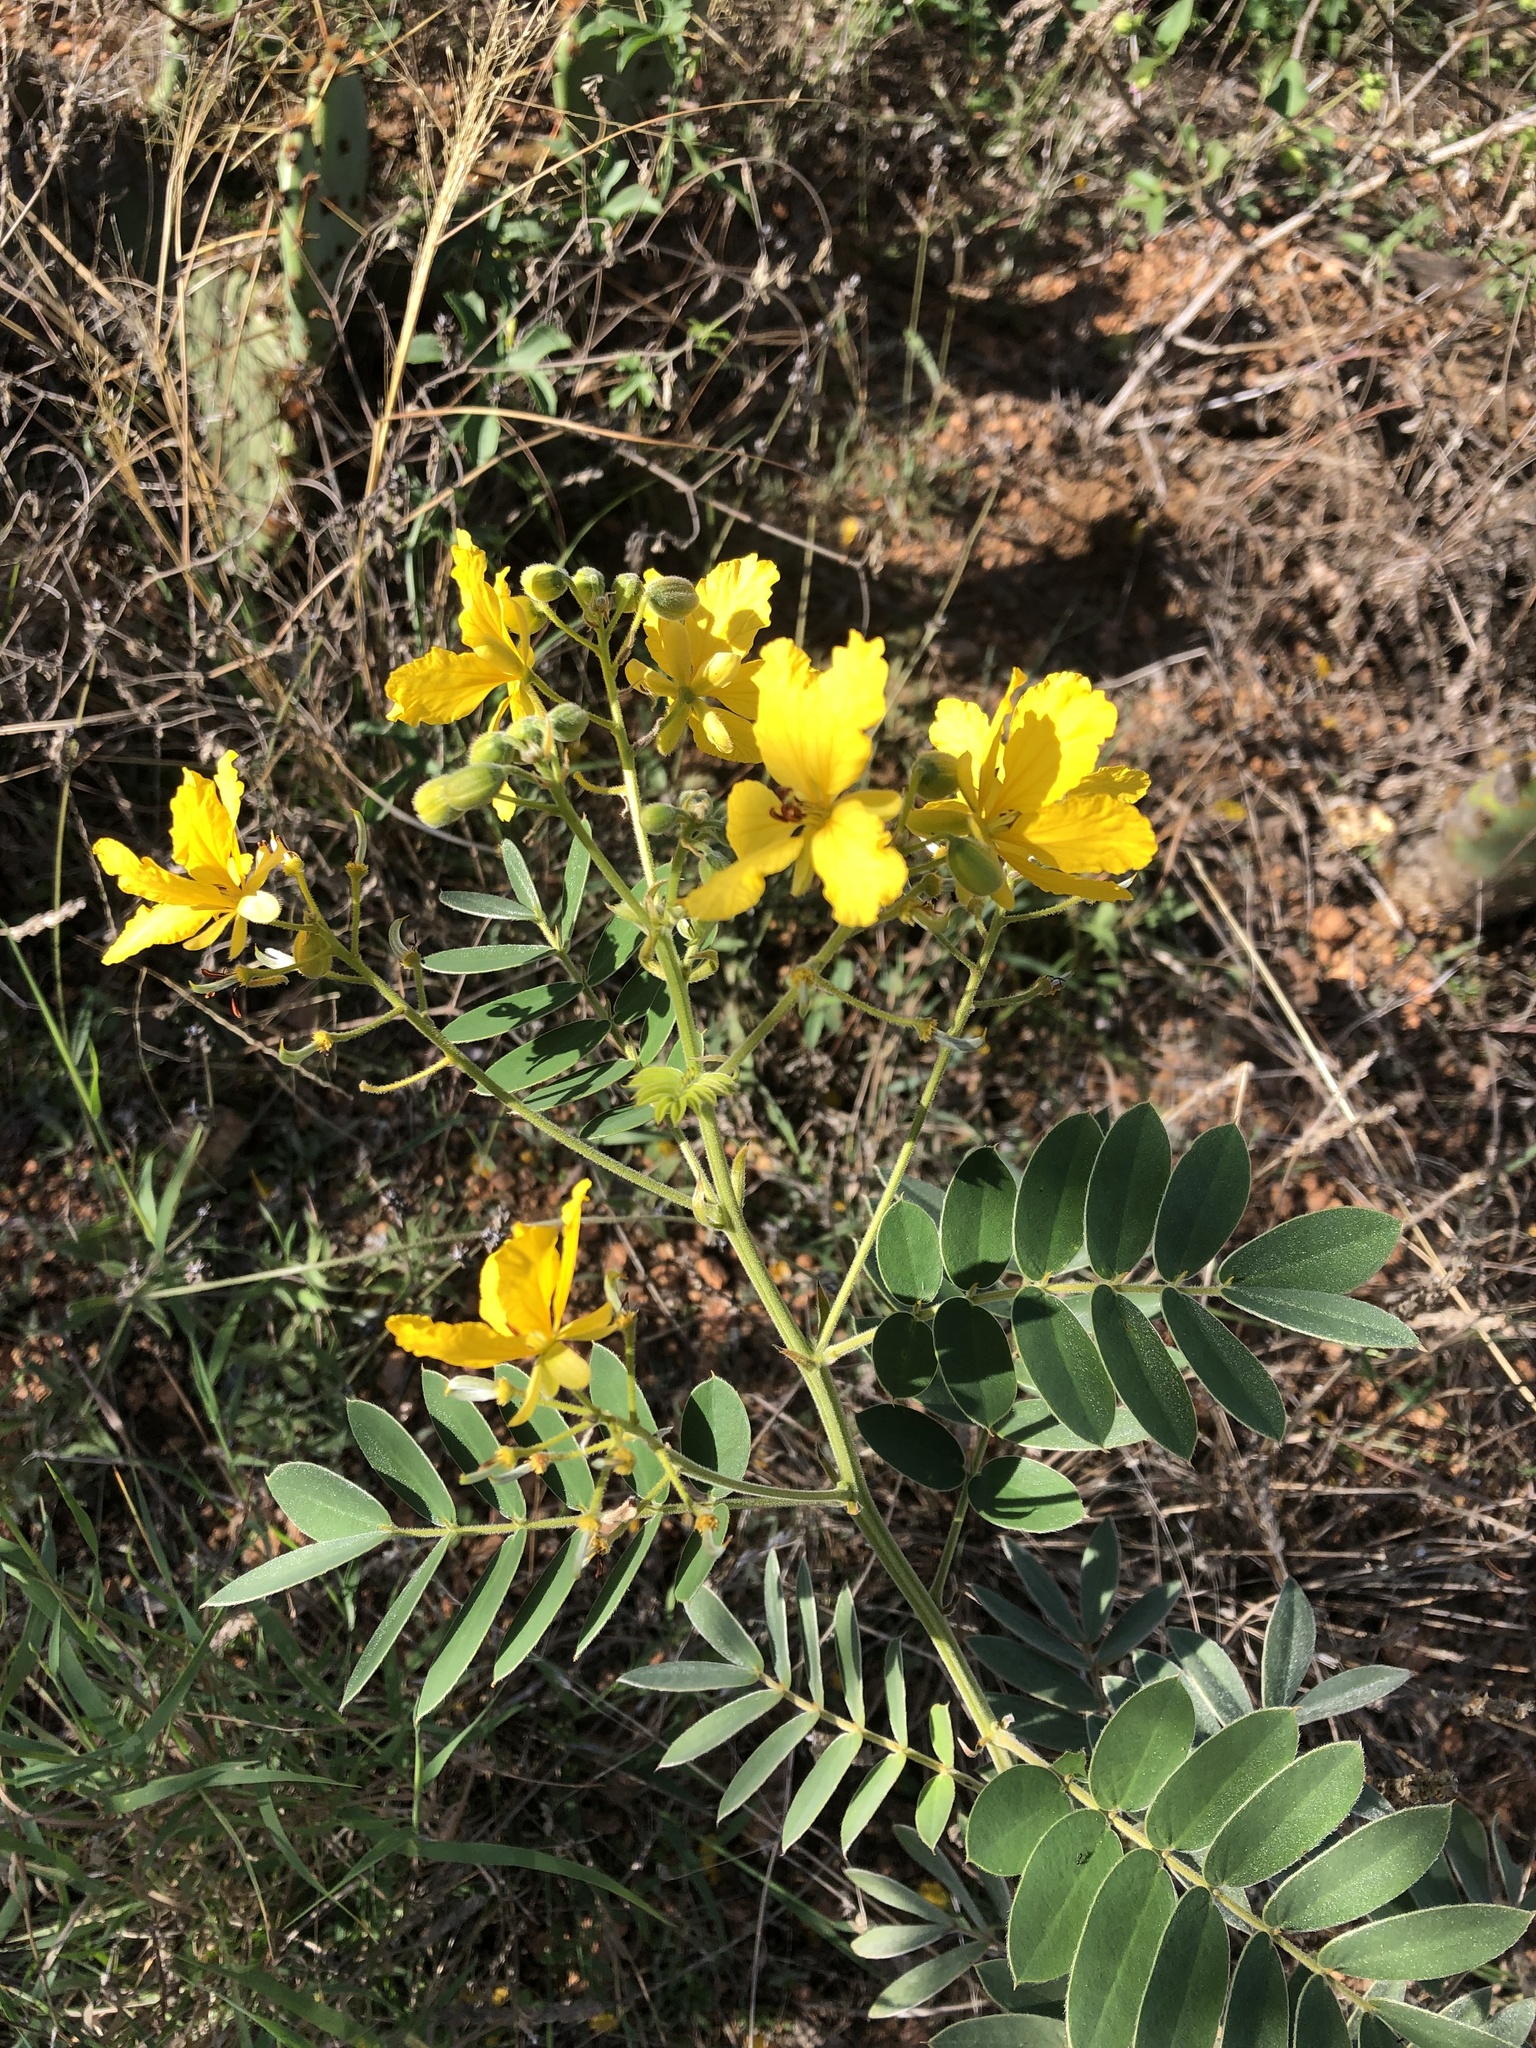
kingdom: Plantae
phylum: Tracheophyta
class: Magnoliopsida
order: Fabales
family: Fabaceae
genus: Senna
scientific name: Senna lindheimeriana
